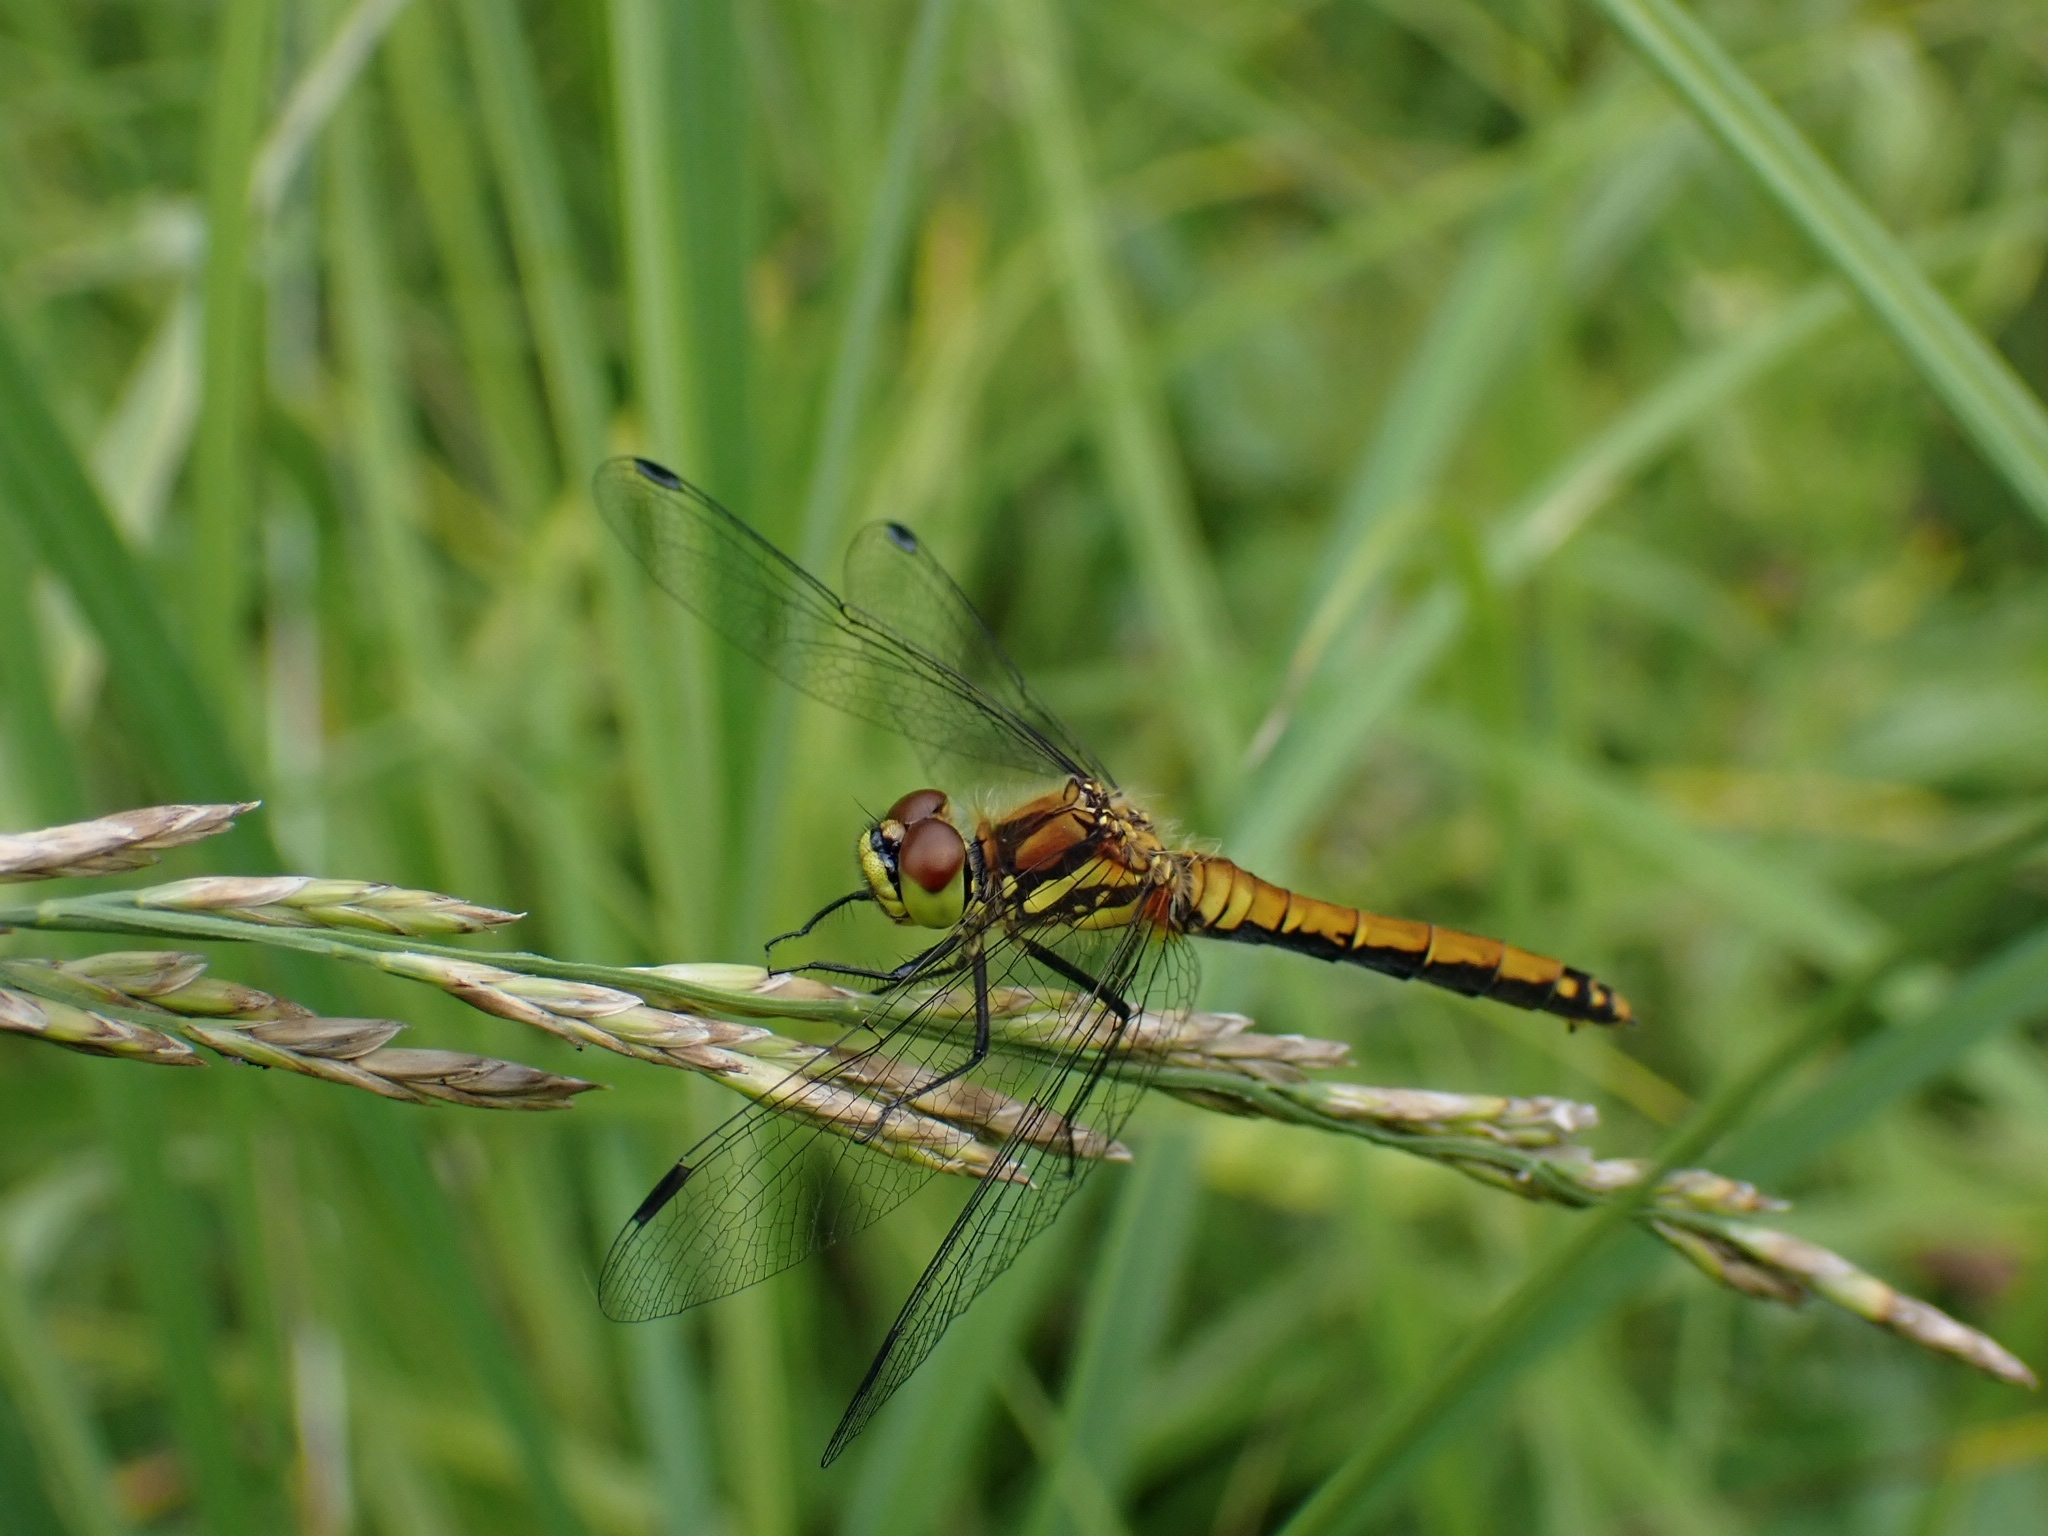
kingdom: Animalia
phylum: Arthropoda
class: Insecta
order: Odonata
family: Libellulidae
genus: Sympetrum
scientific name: Sympetrum danae
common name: Black darter
